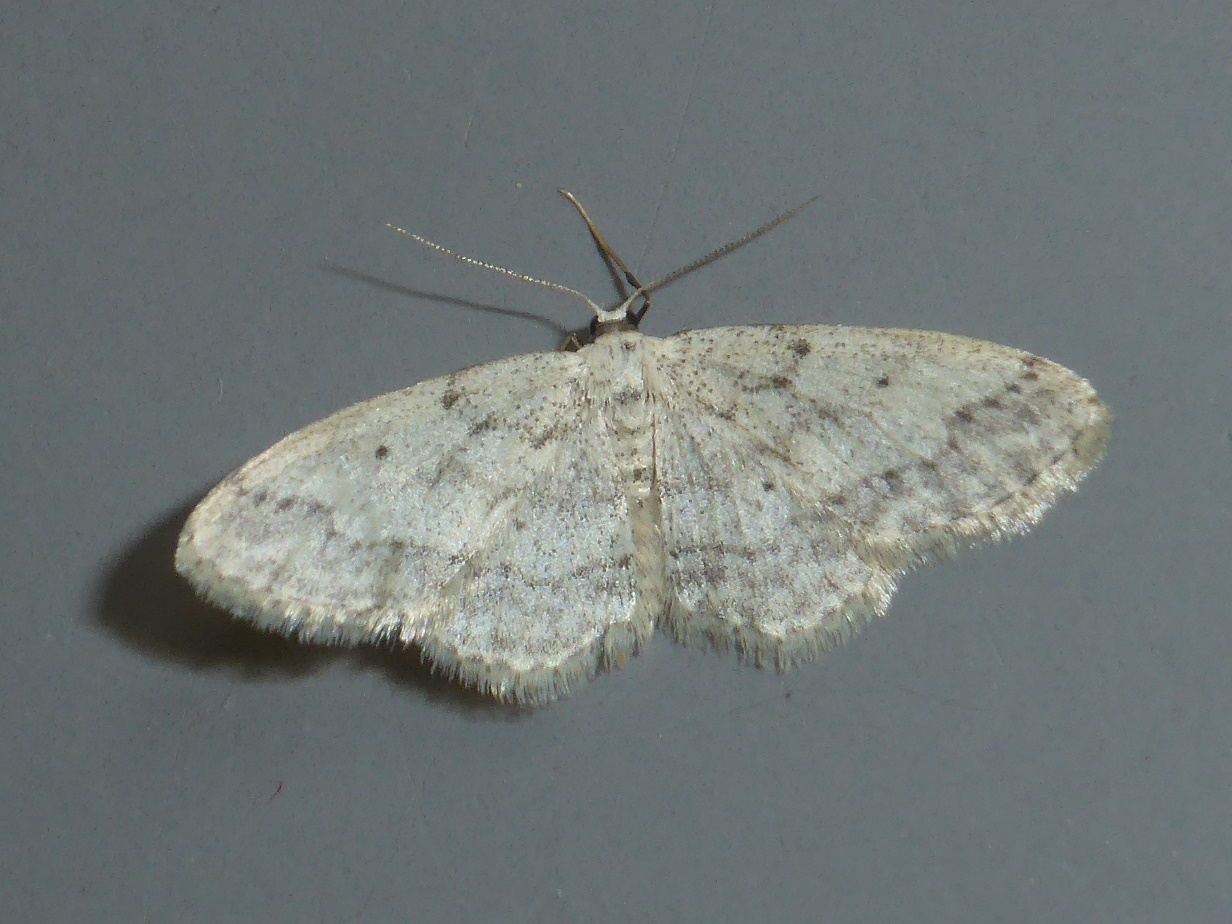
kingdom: Animalia
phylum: Arthropoda
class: Insecta
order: Lepidoptera
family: Geometridae
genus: Idaea
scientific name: Idaea seriata
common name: Small dusty wave
